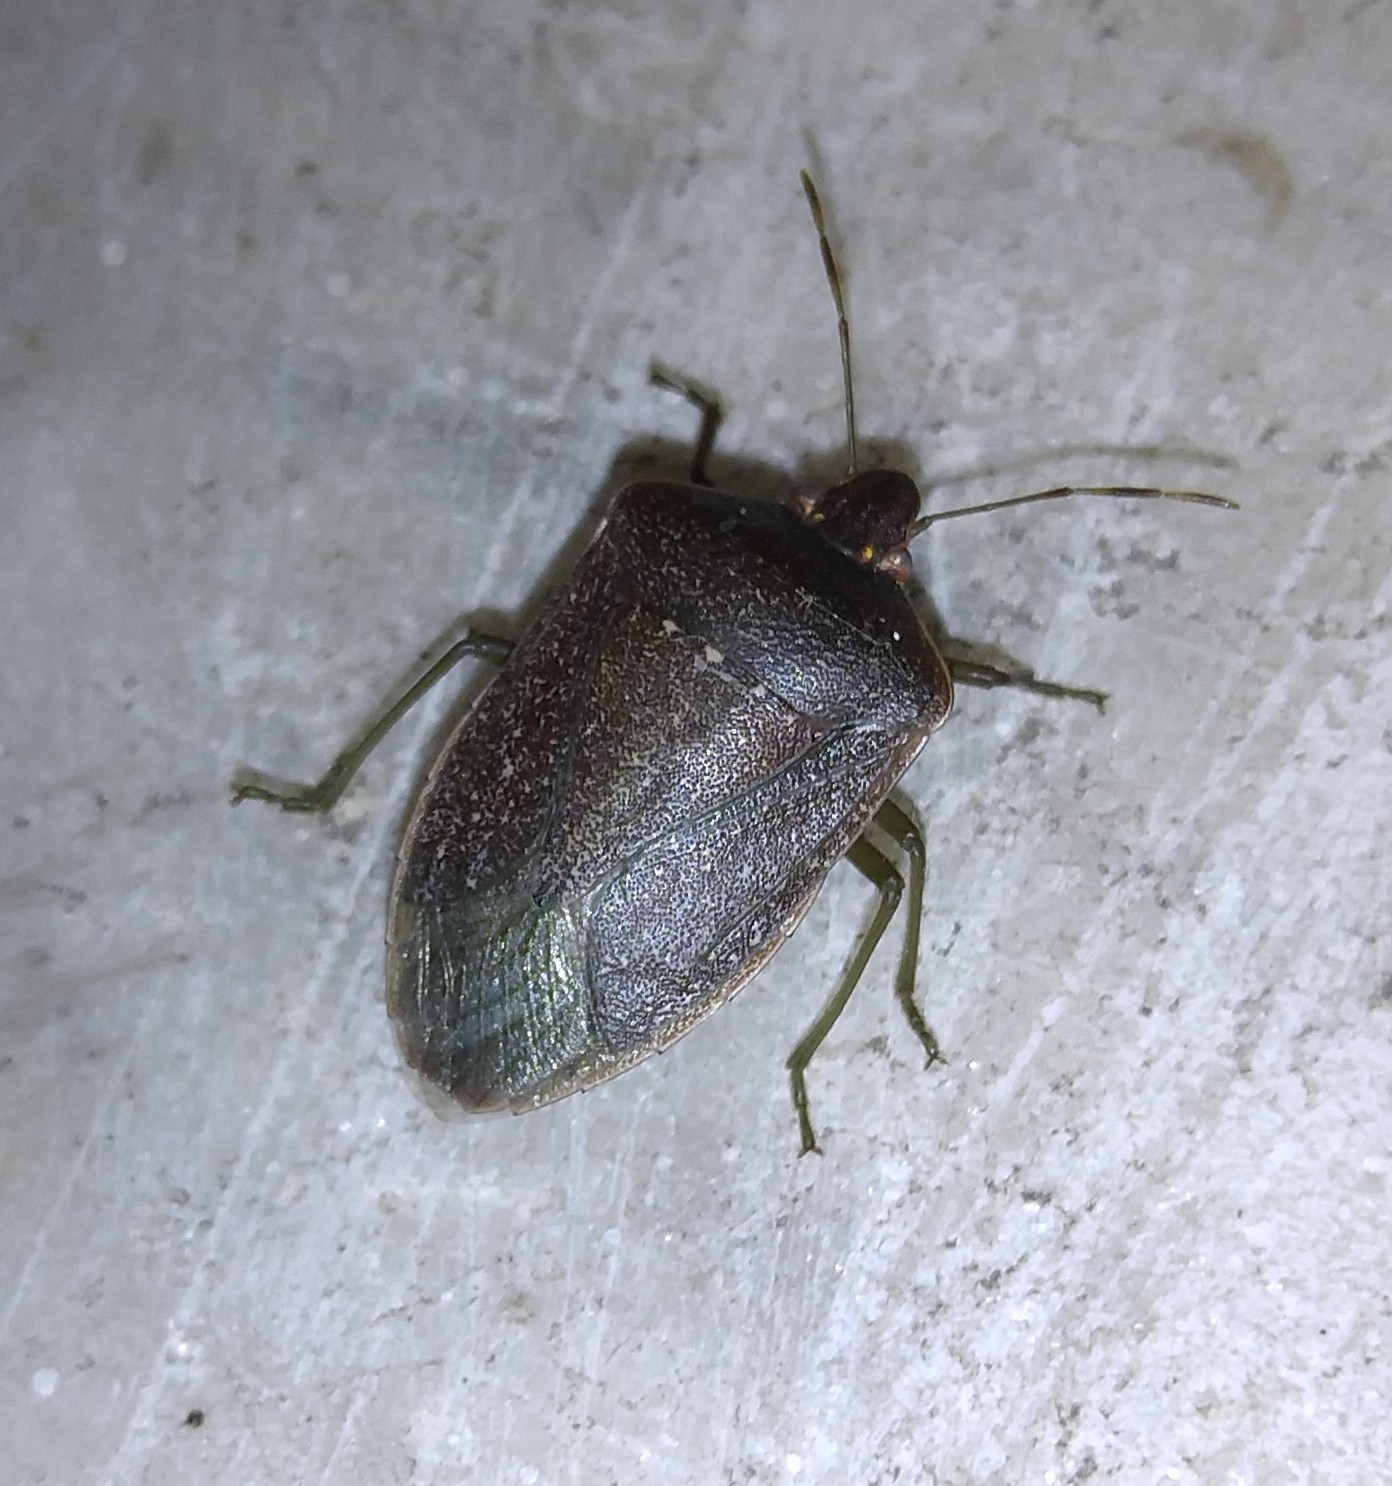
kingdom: Animalia
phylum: Arthropoda
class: Insecta
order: Hemiptera
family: Pentatomidae
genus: Nezara
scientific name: Nezara viridula
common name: Southern green stink bug
